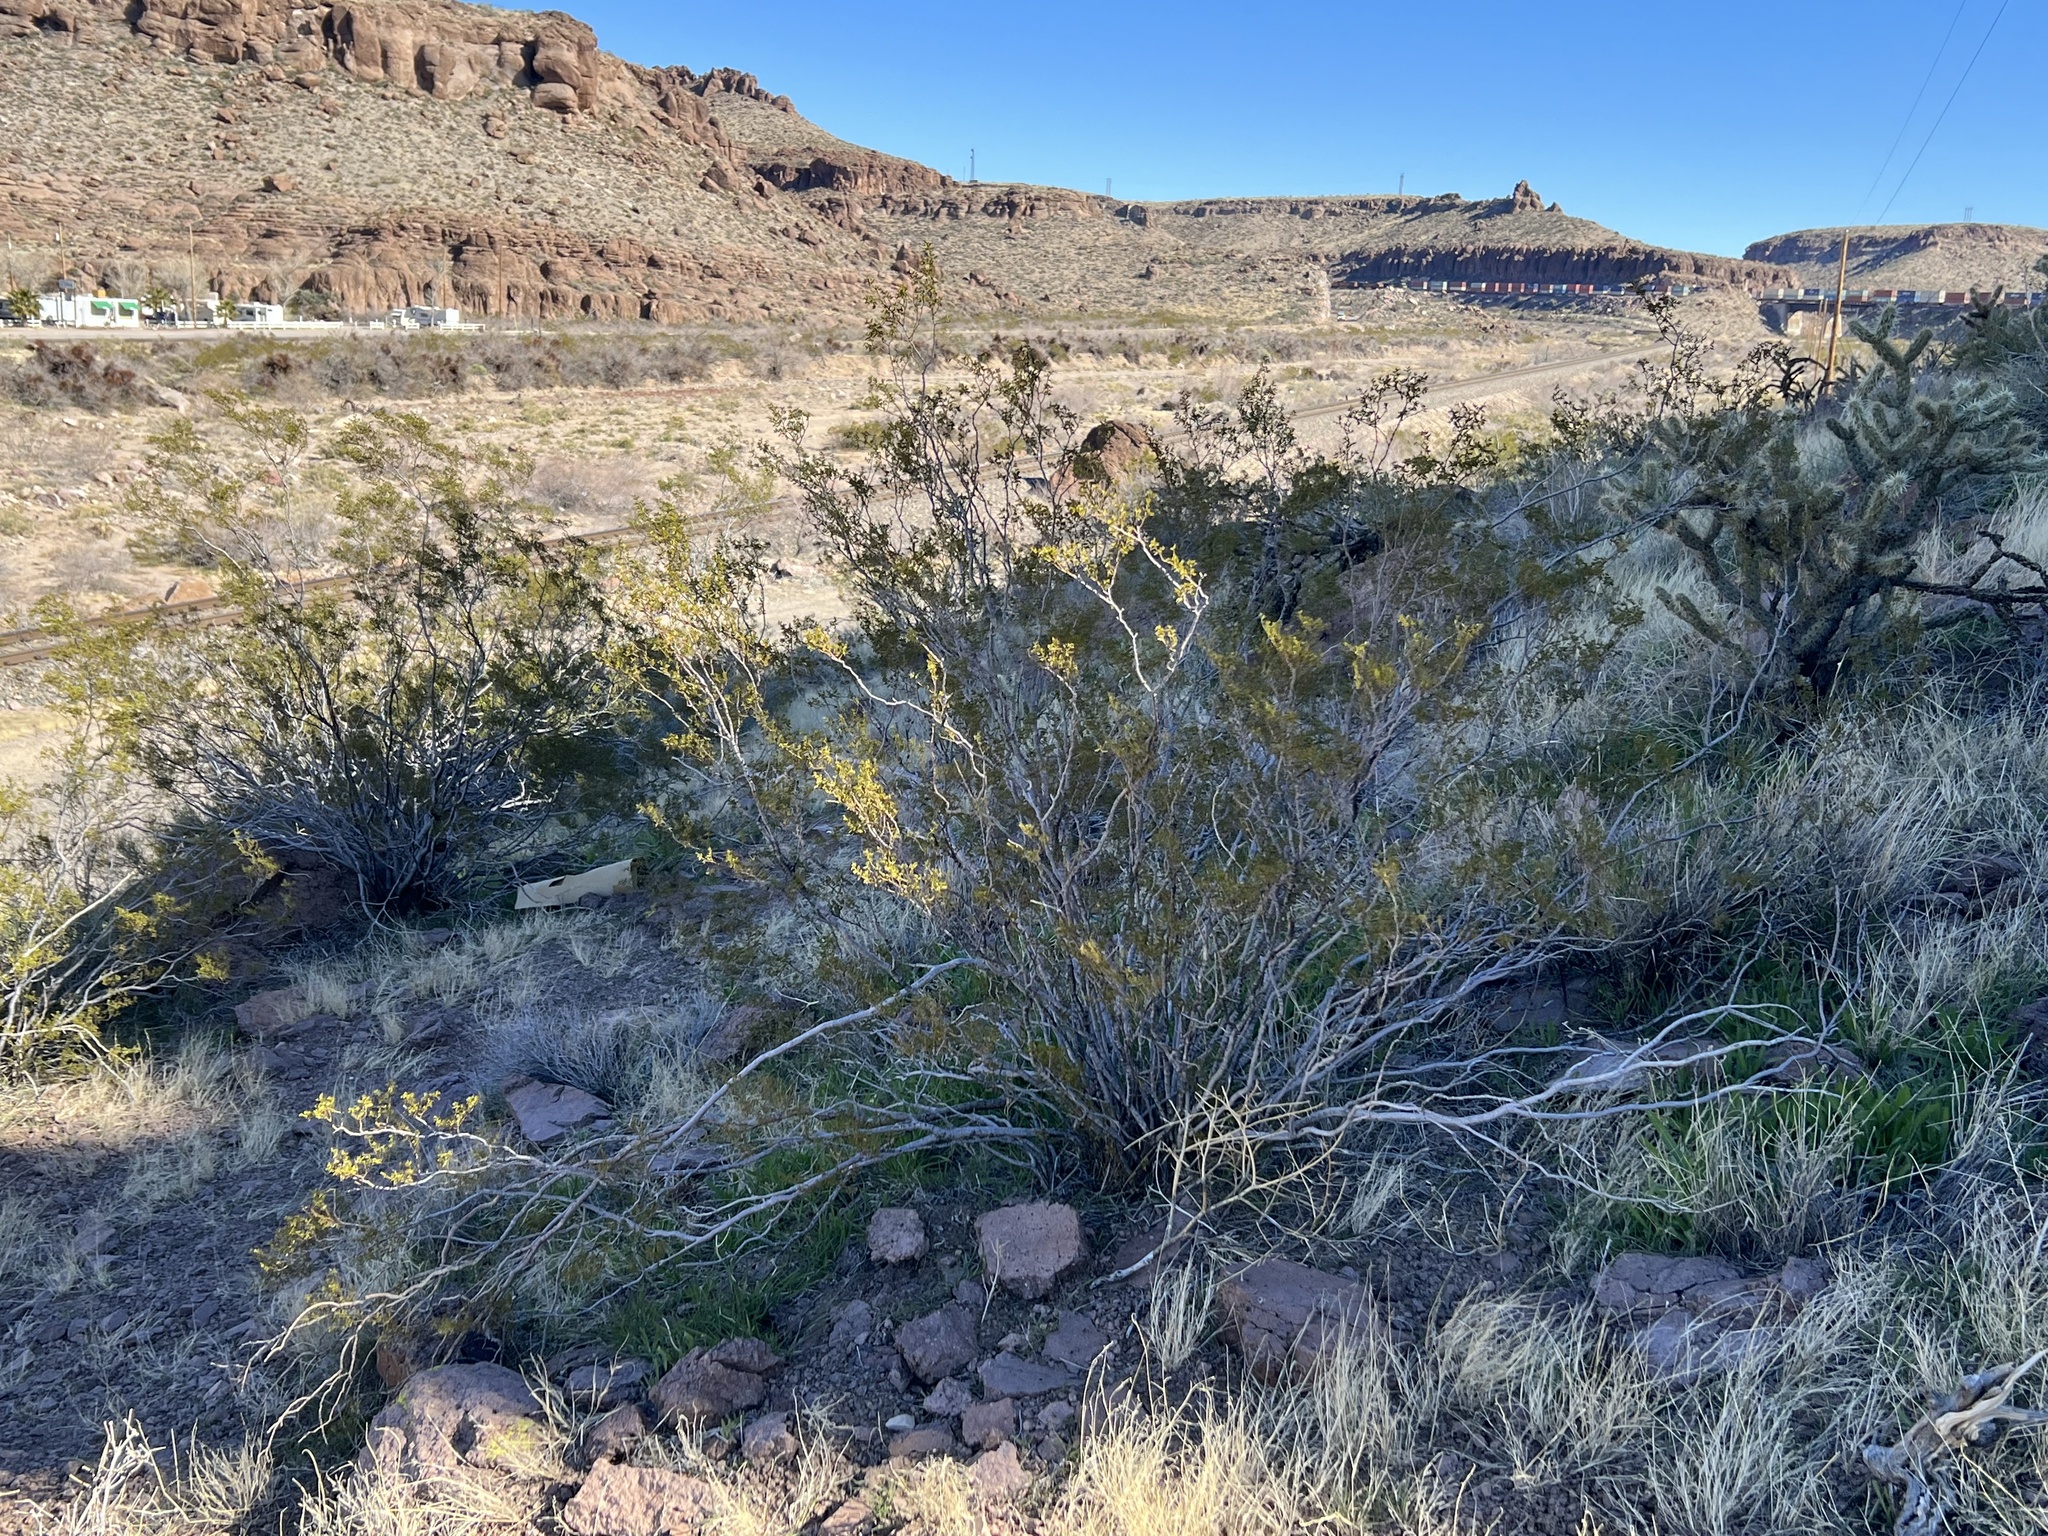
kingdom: Plantae
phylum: Tracheophyta
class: Magnoliopsida
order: Zygophyllales
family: Zygophyllaceae
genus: Larrea
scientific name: Larrea tridentata
